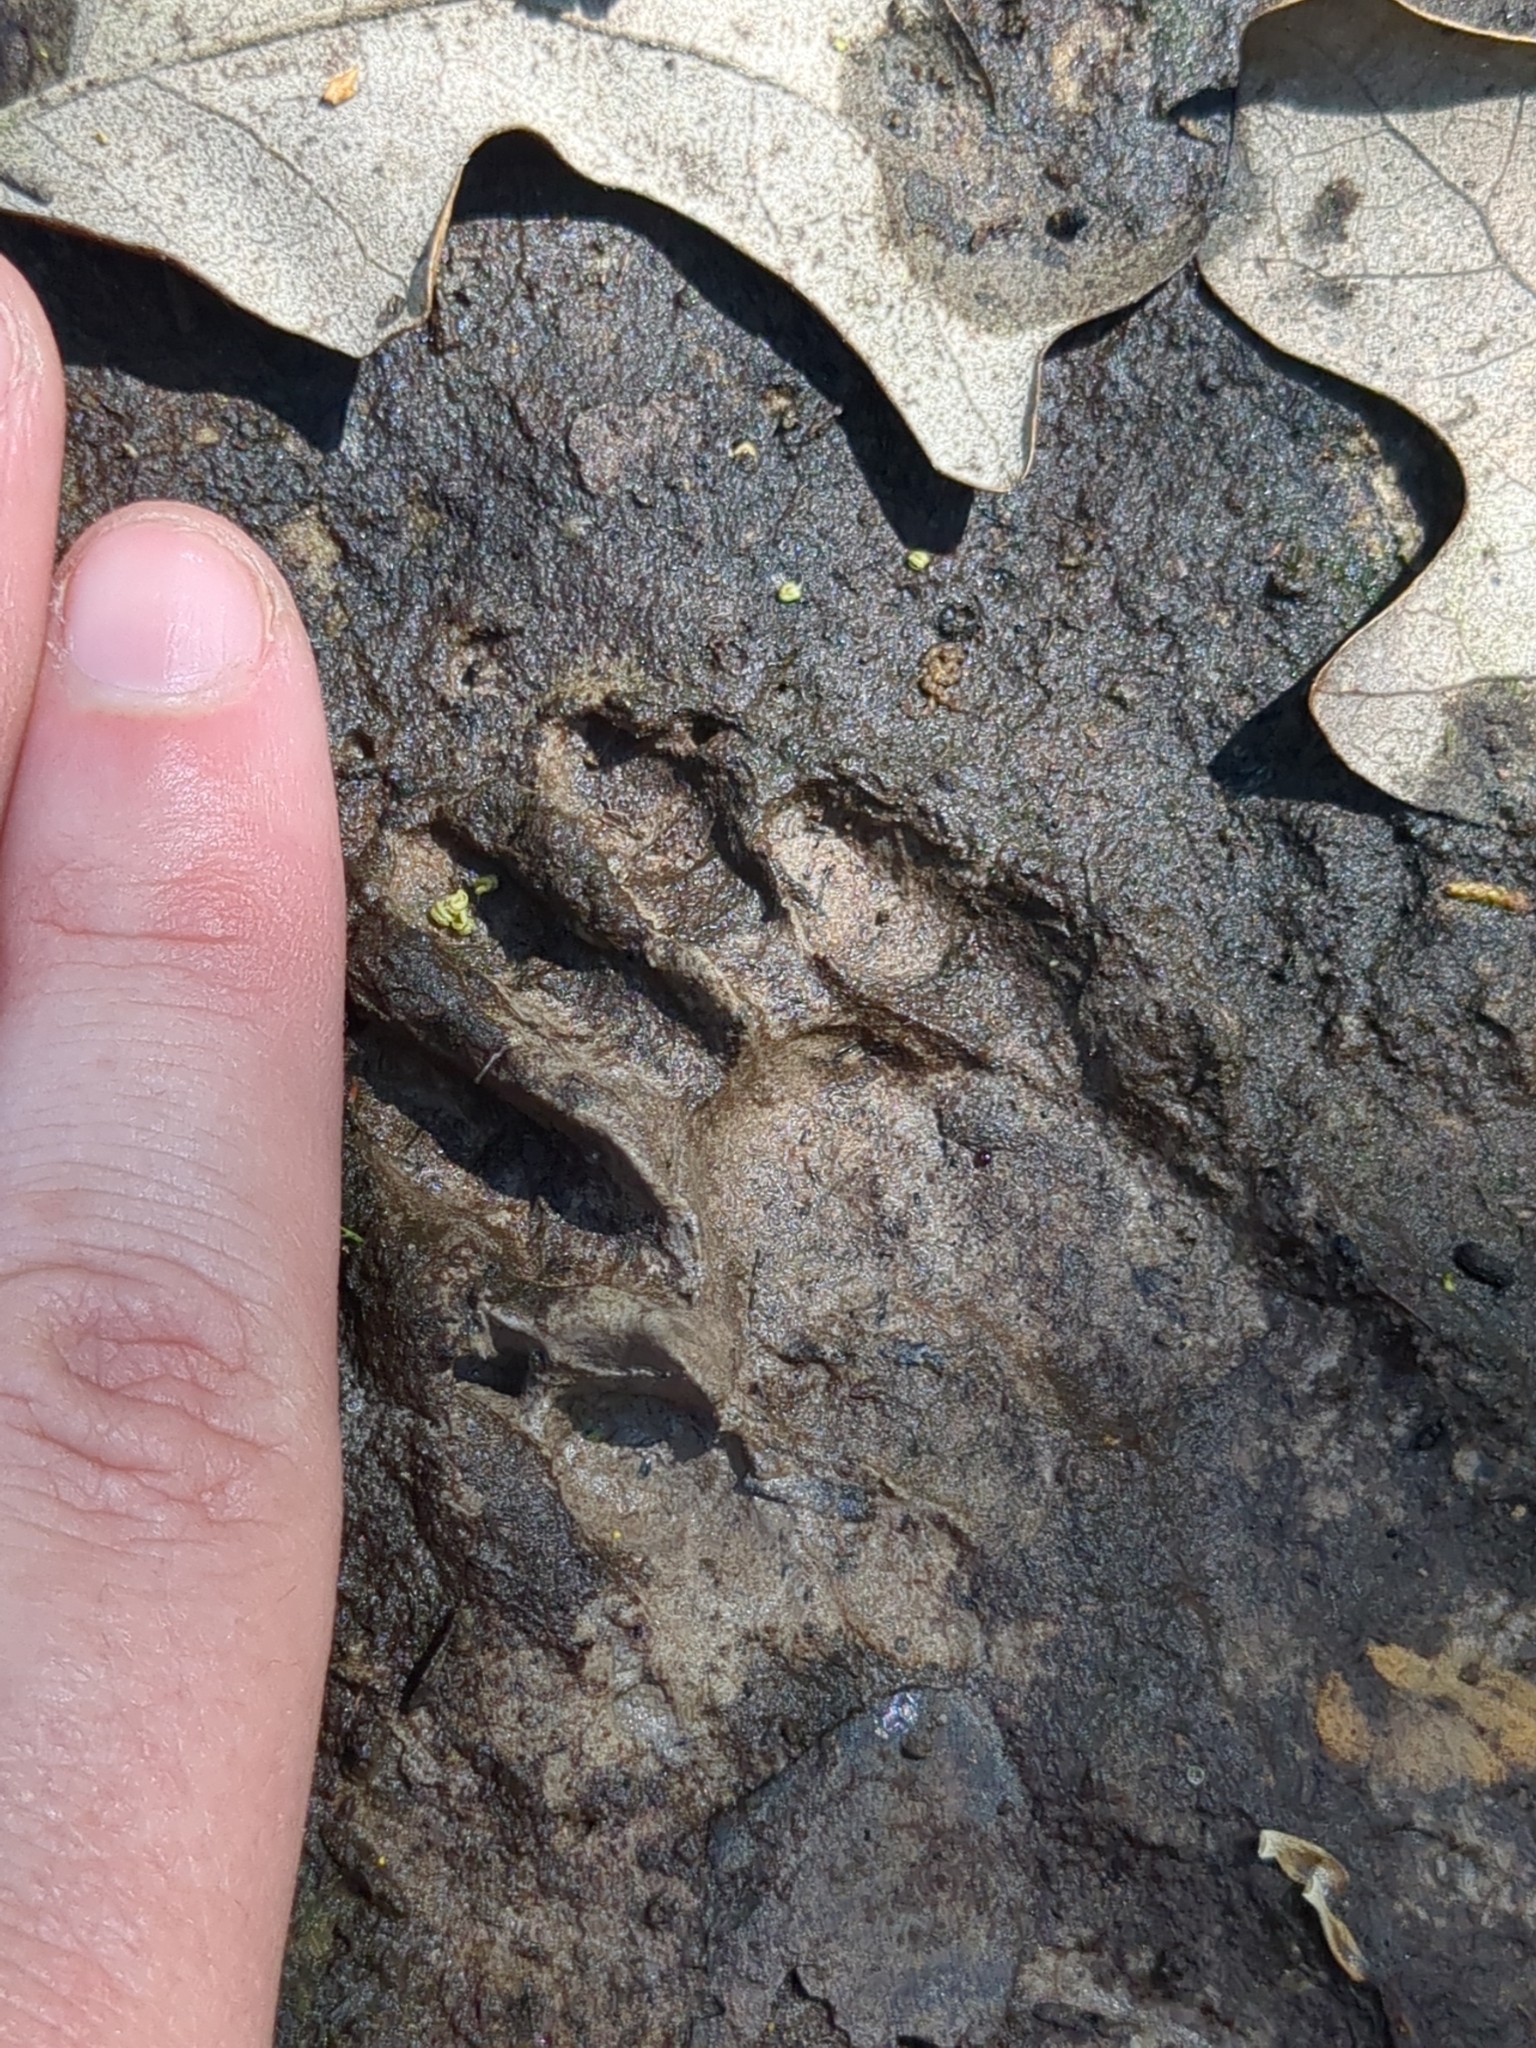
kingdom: Animalia
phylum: Chordata
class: Mammalia
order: Carnivora
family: Procyonidae
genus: Procyon
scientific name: Procyon lotor
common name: Raccoon
